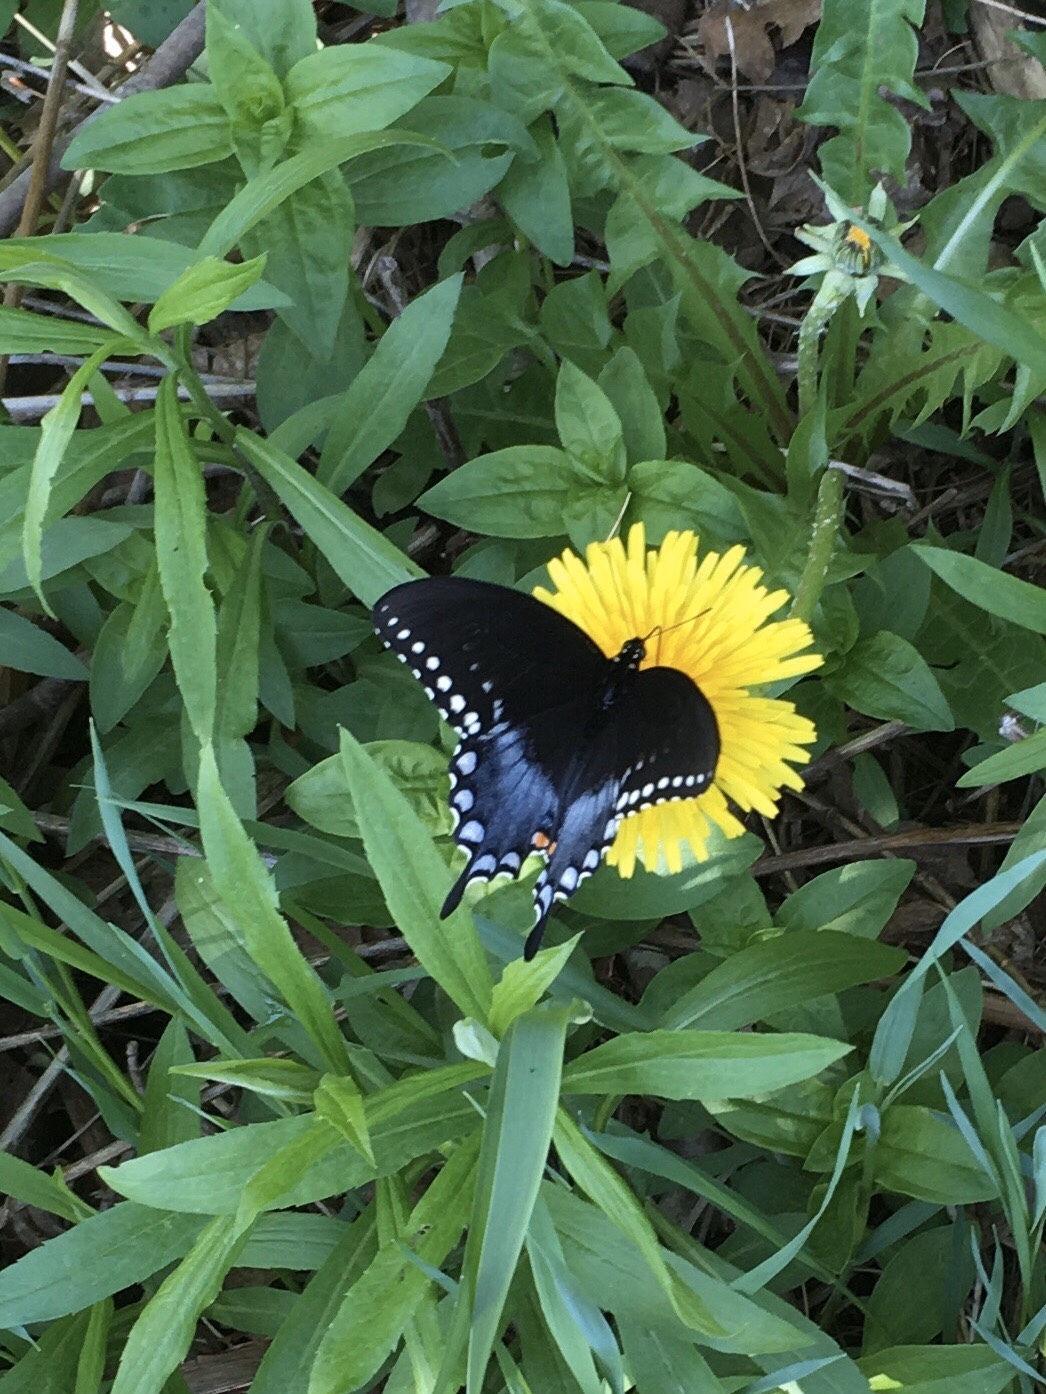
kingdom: Animalia
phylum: Arthropoda
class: Insecta
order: Lepidoptera
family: Papilionidae
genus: Papilio
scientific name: Papilio troilus
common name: Spicebush swallowtail
